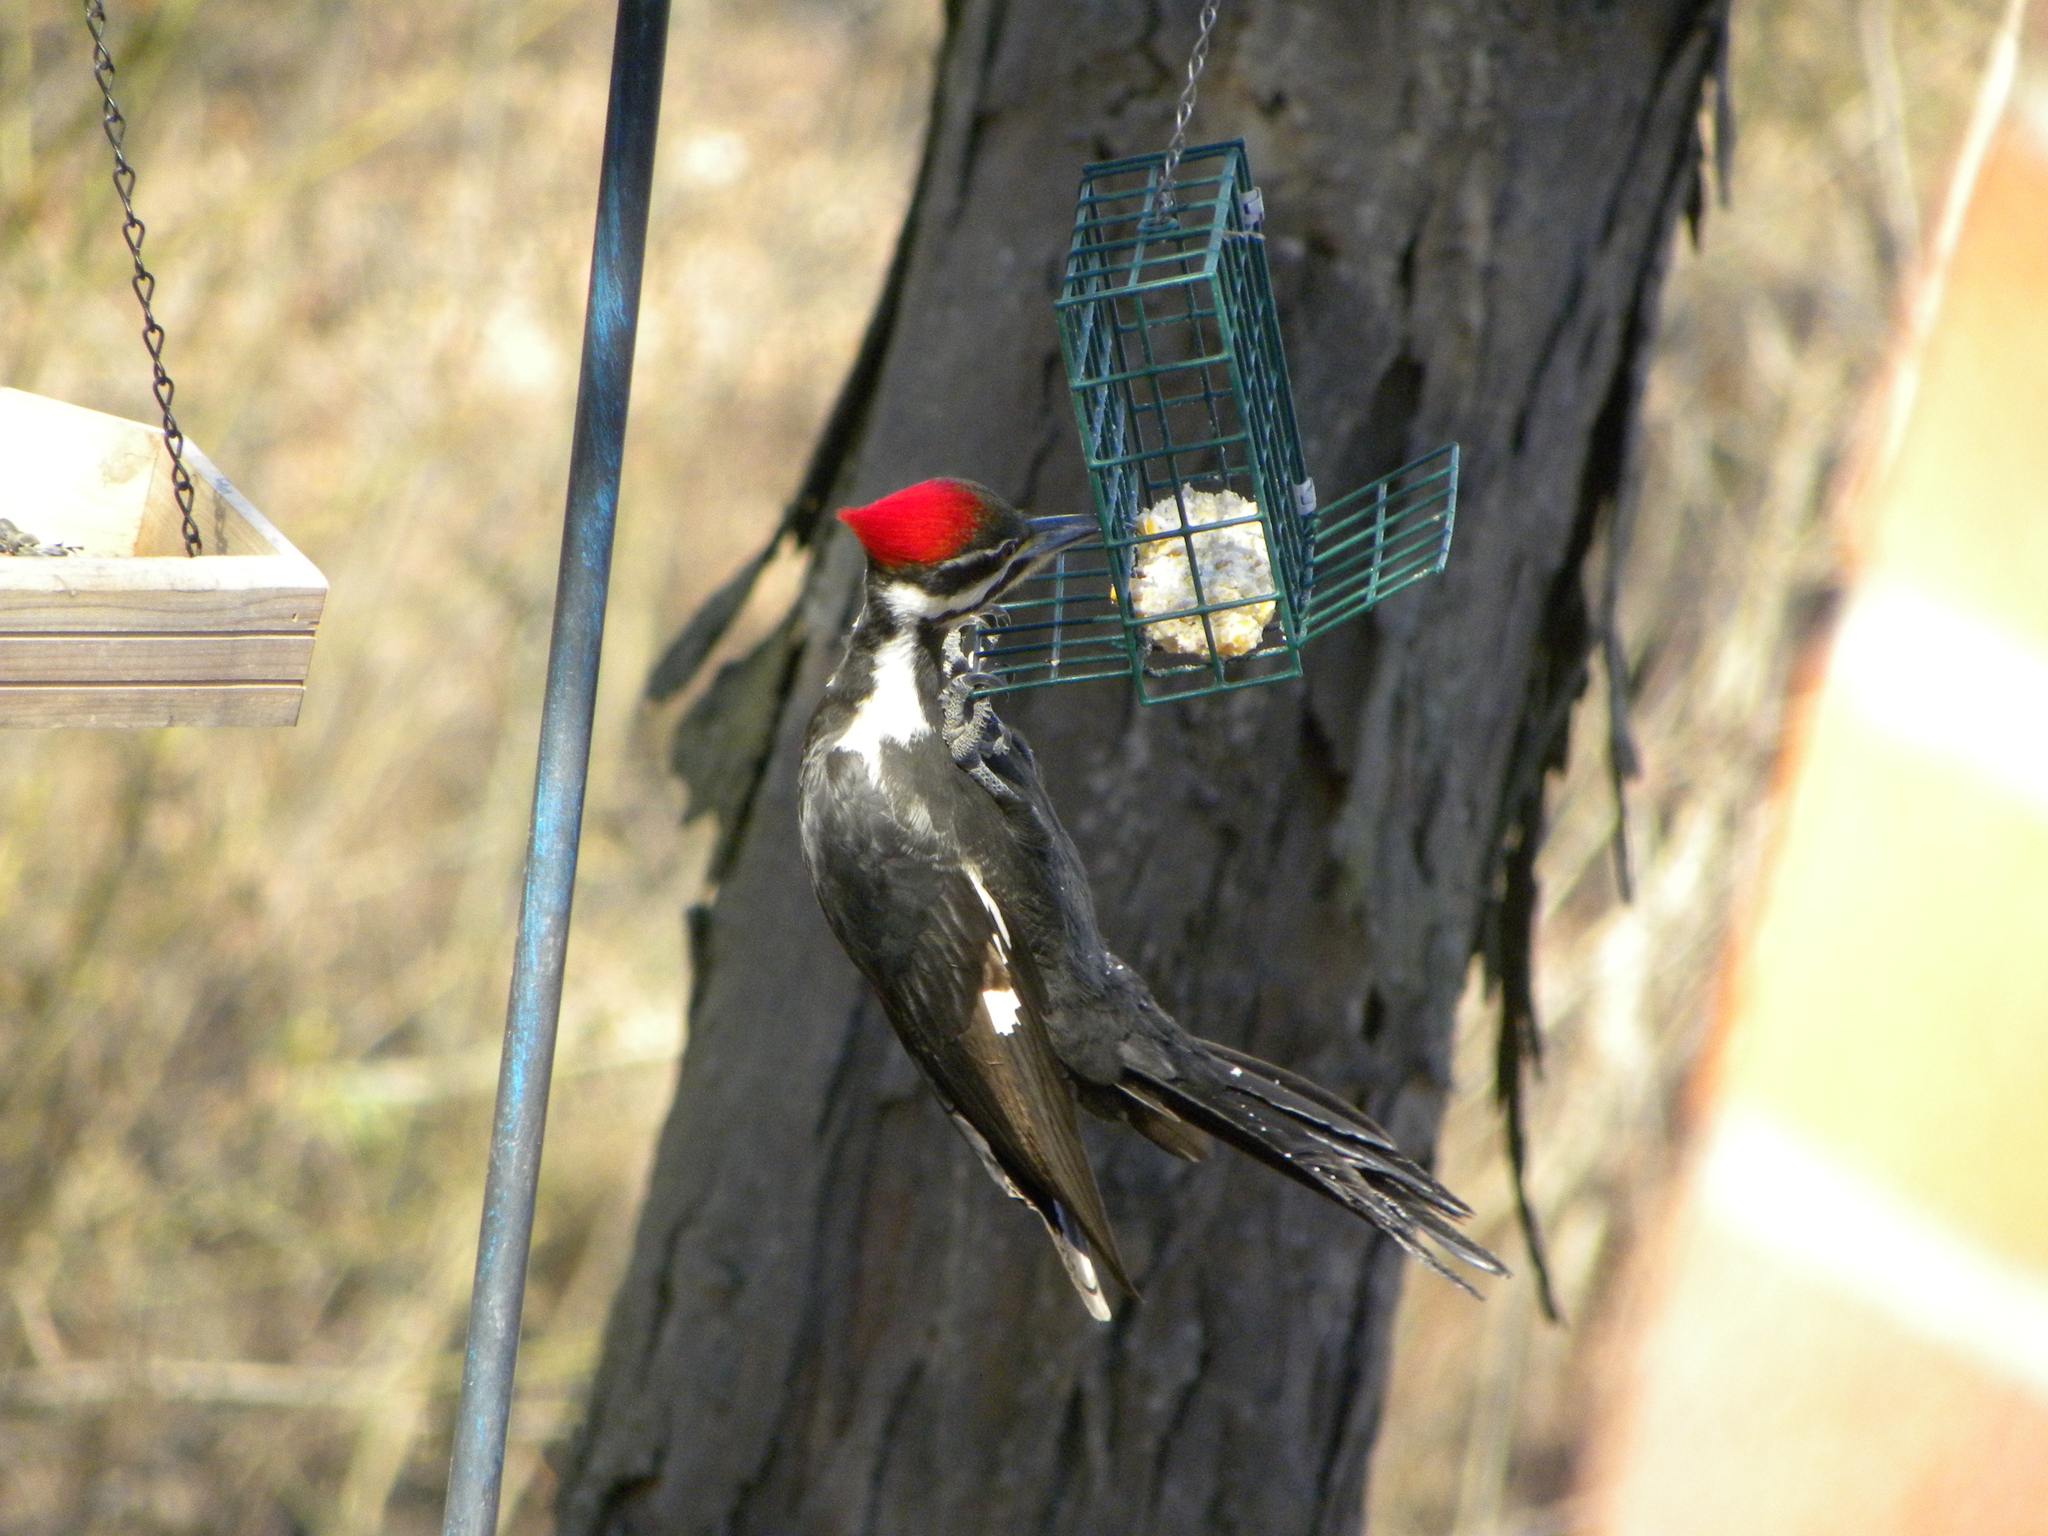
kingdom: Animalia
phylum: Chordata
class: Aves
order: Piciformes
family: Picidae
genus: Dryocopus
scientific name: Dryocopus pileatus
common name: Pileated woodpecker
